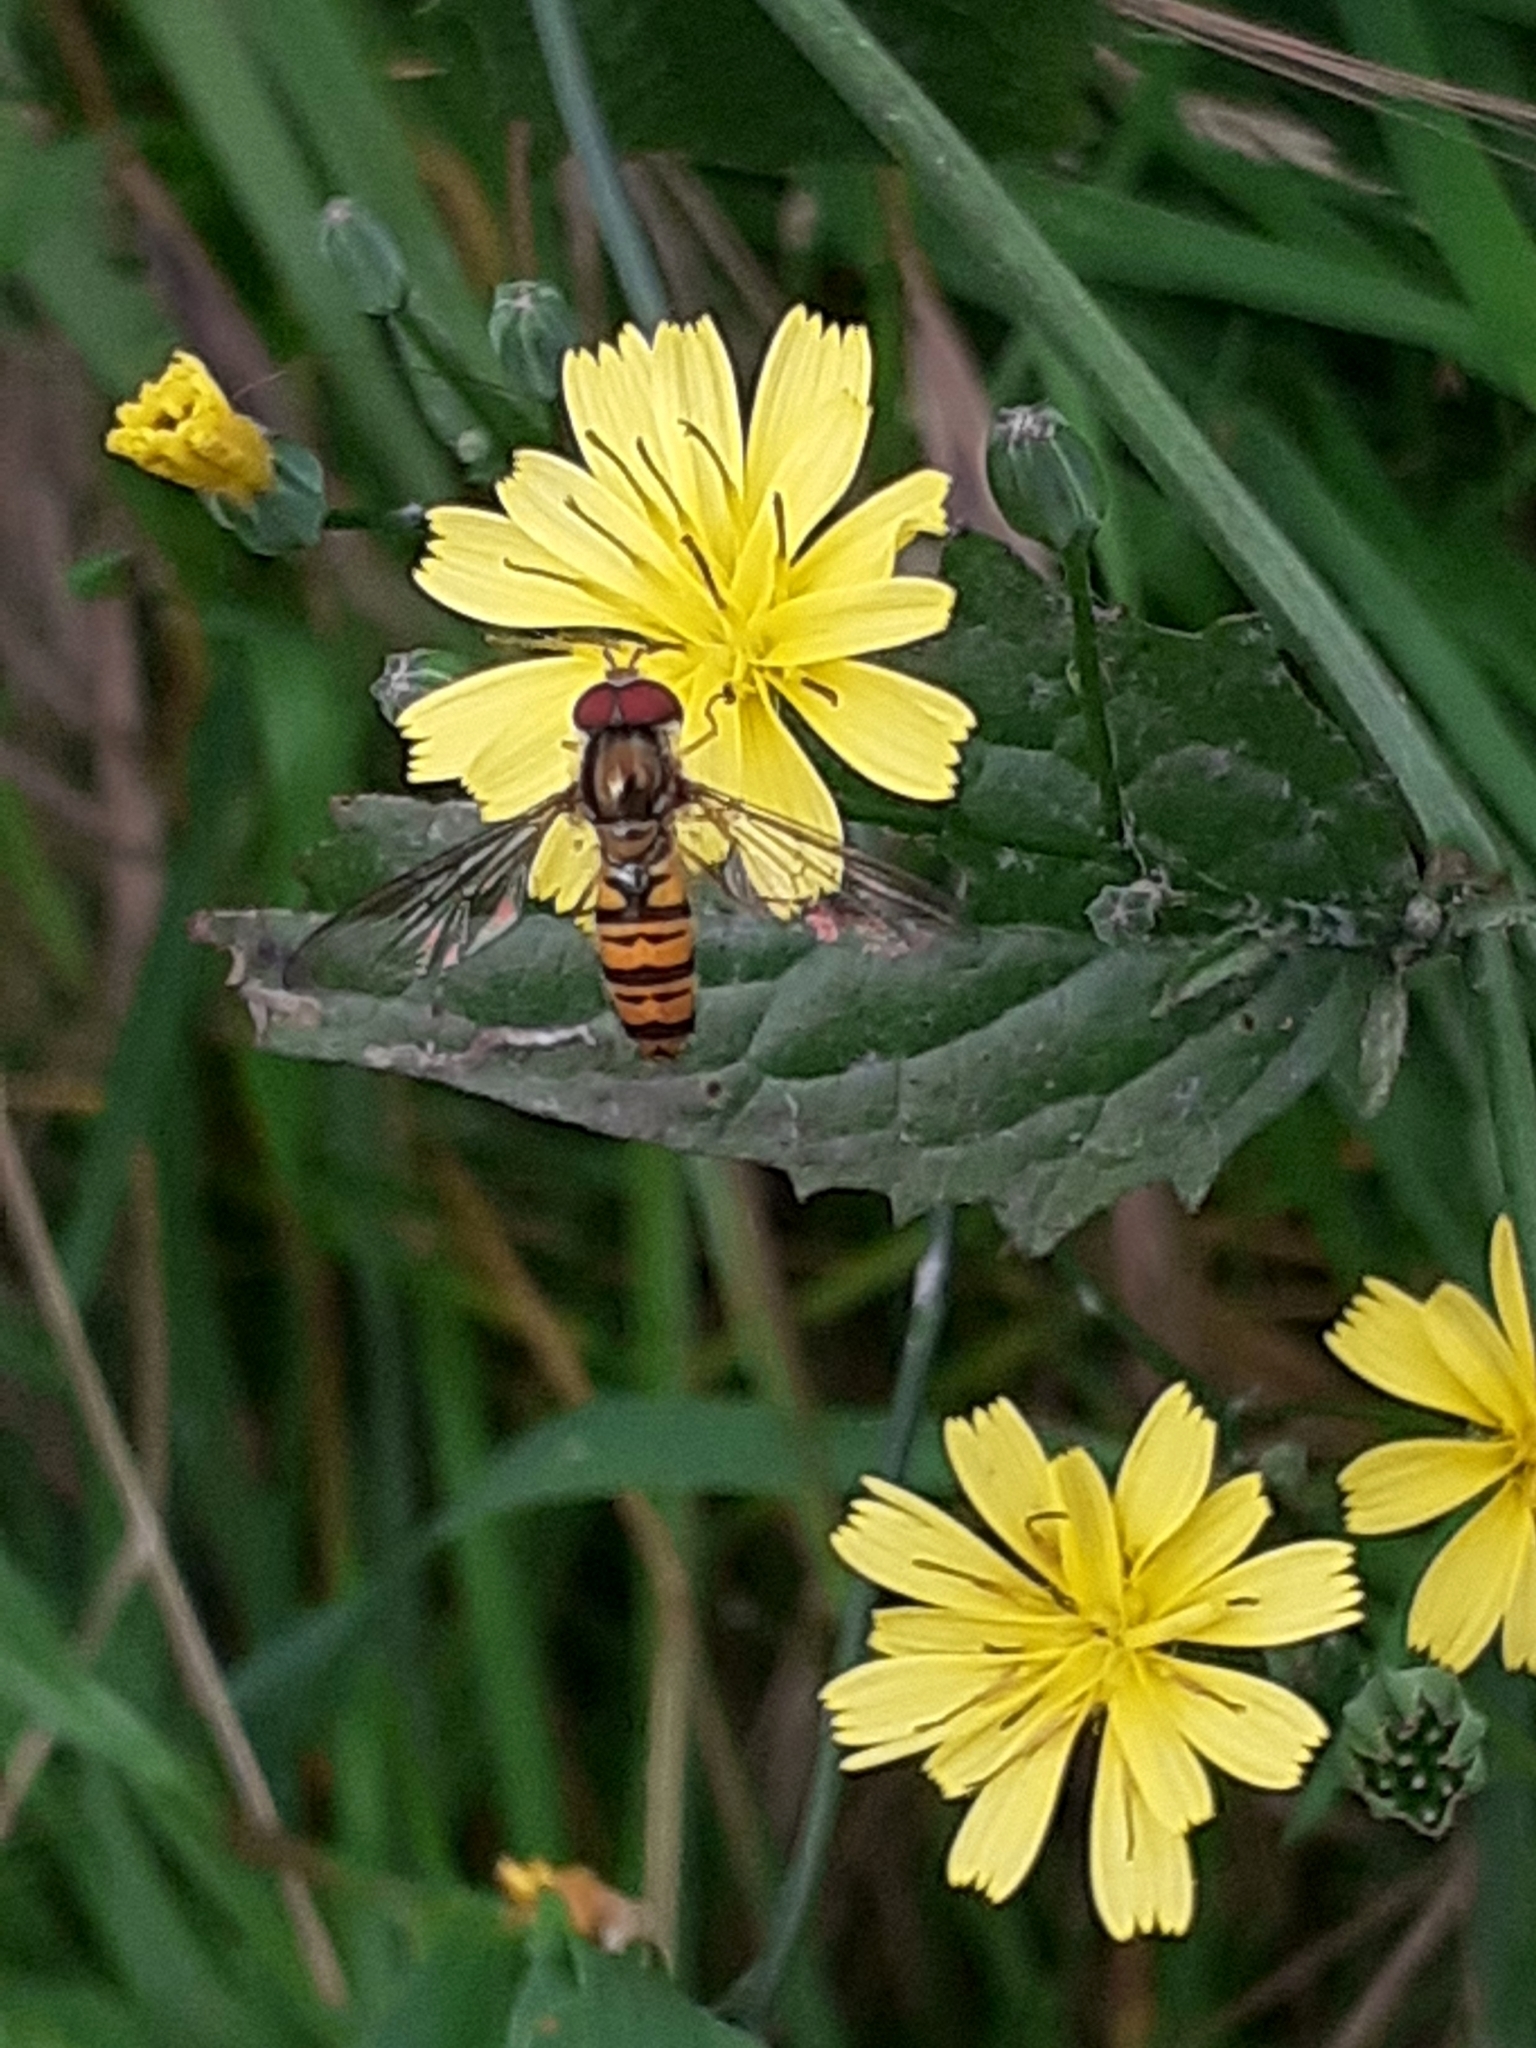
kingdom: Animalia
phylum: Arthropoda
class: Insecta
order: Diptera
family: Syrphidae
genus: Episyrphus
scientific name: Episyrphus balteatus
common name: Marmalade hoverfly
